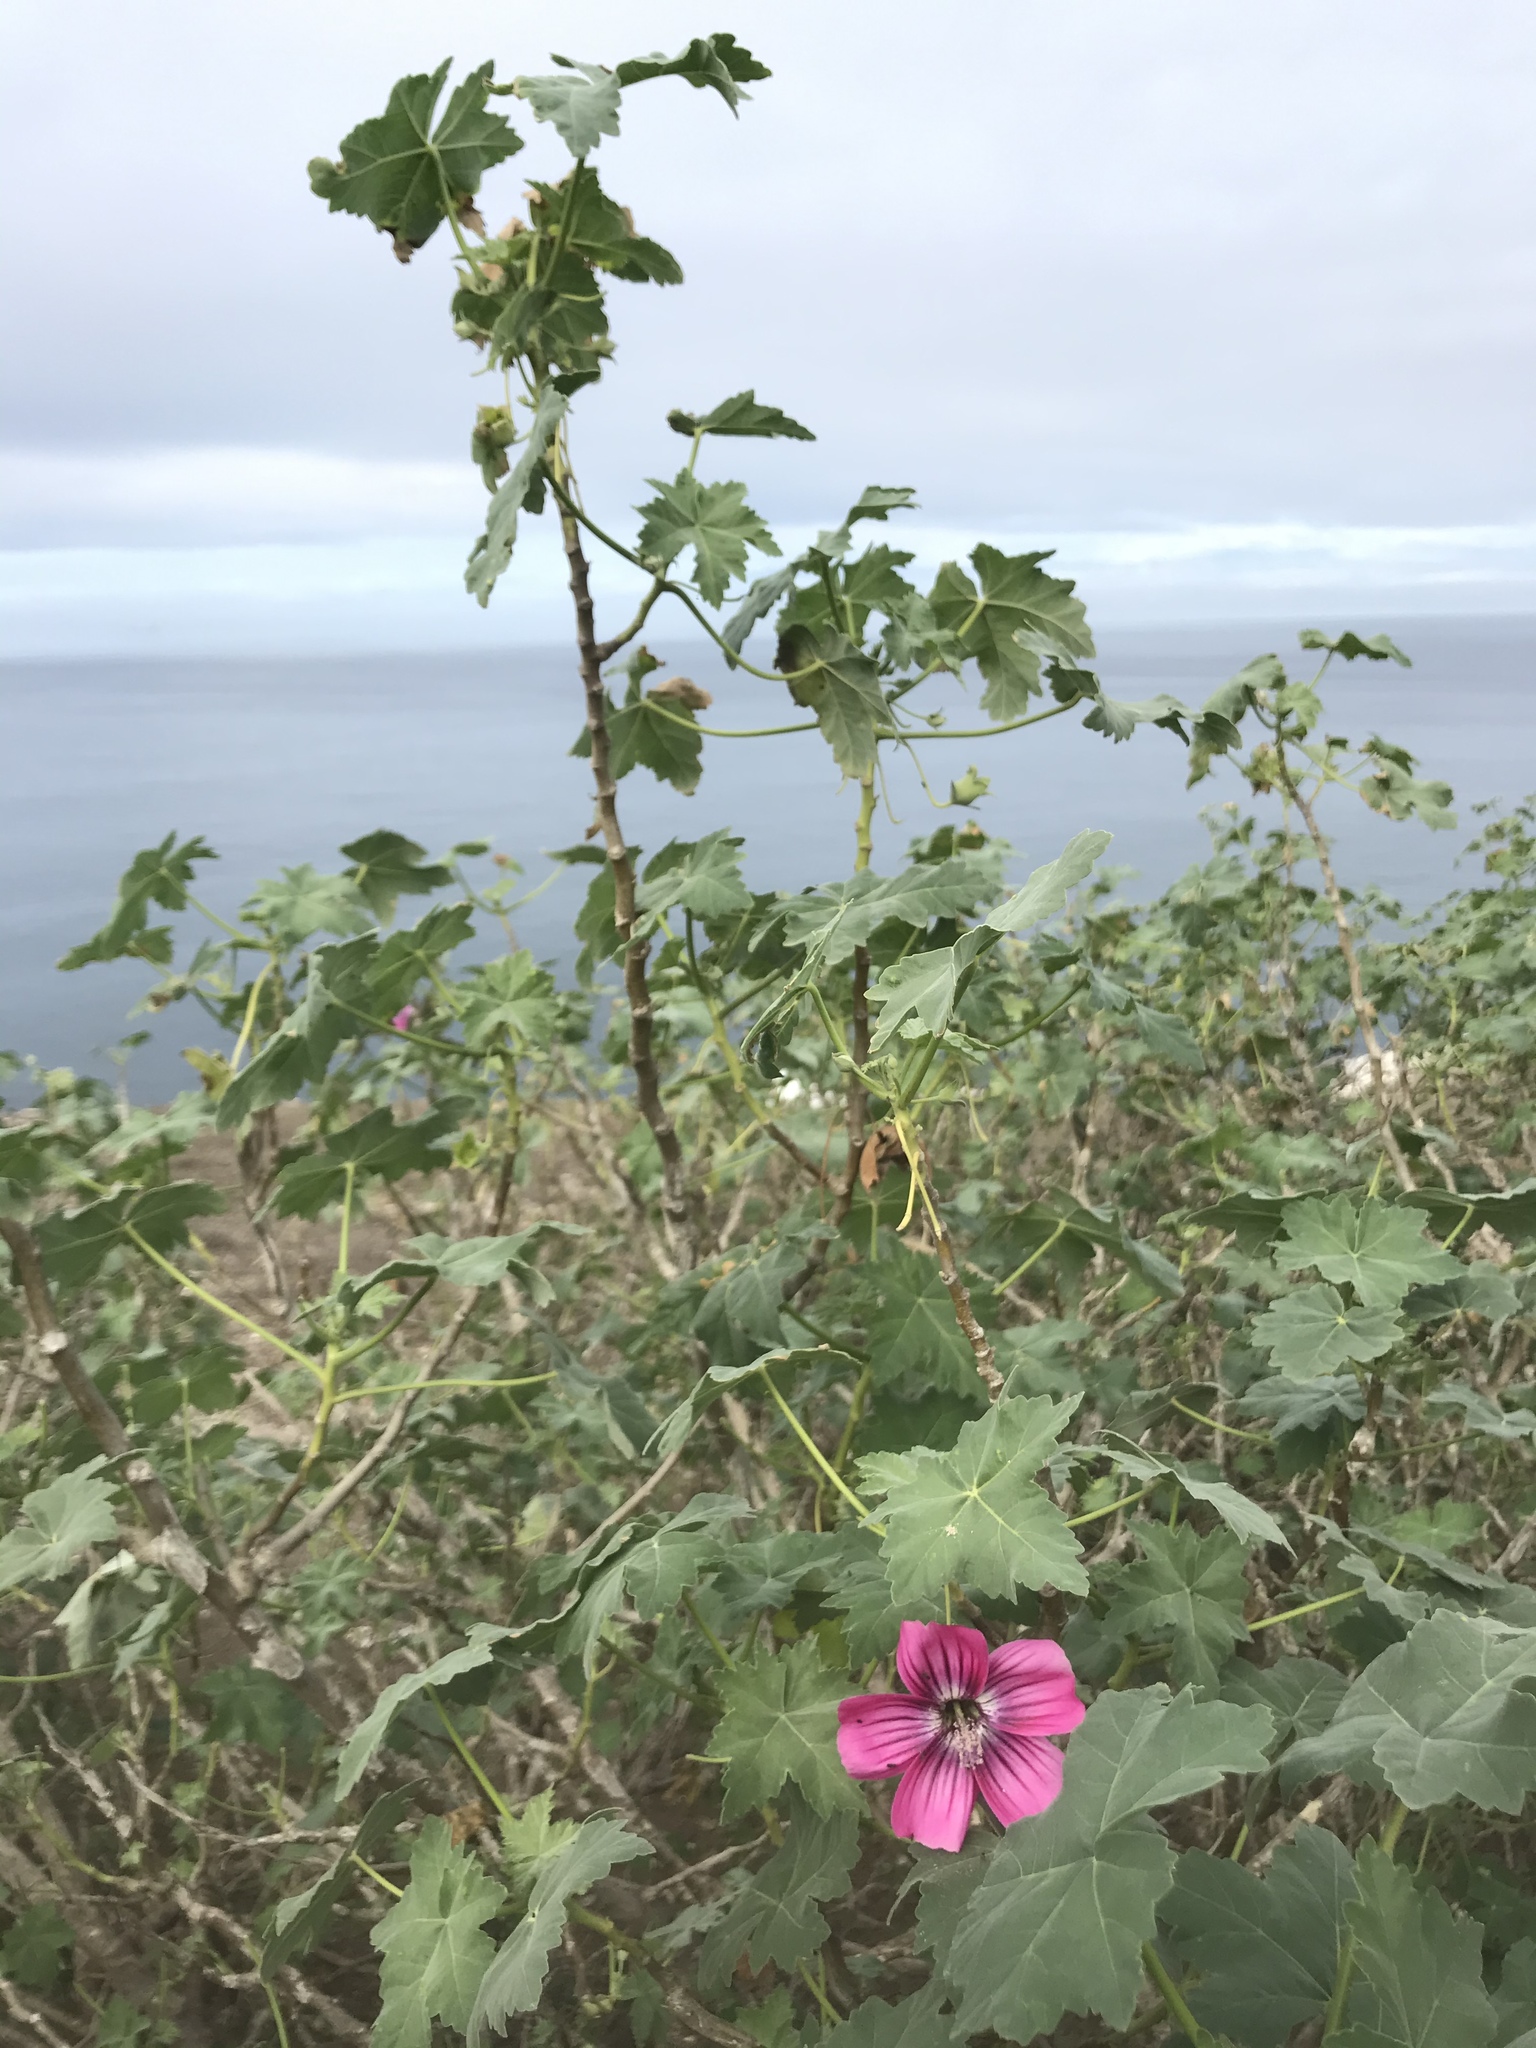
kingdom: Plantae
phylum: Tracheophyta
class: Magnoliopsida
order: Malvales
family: Malvaceae
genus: Malva
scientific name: Malva assurgentiflora
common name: Island mallow
